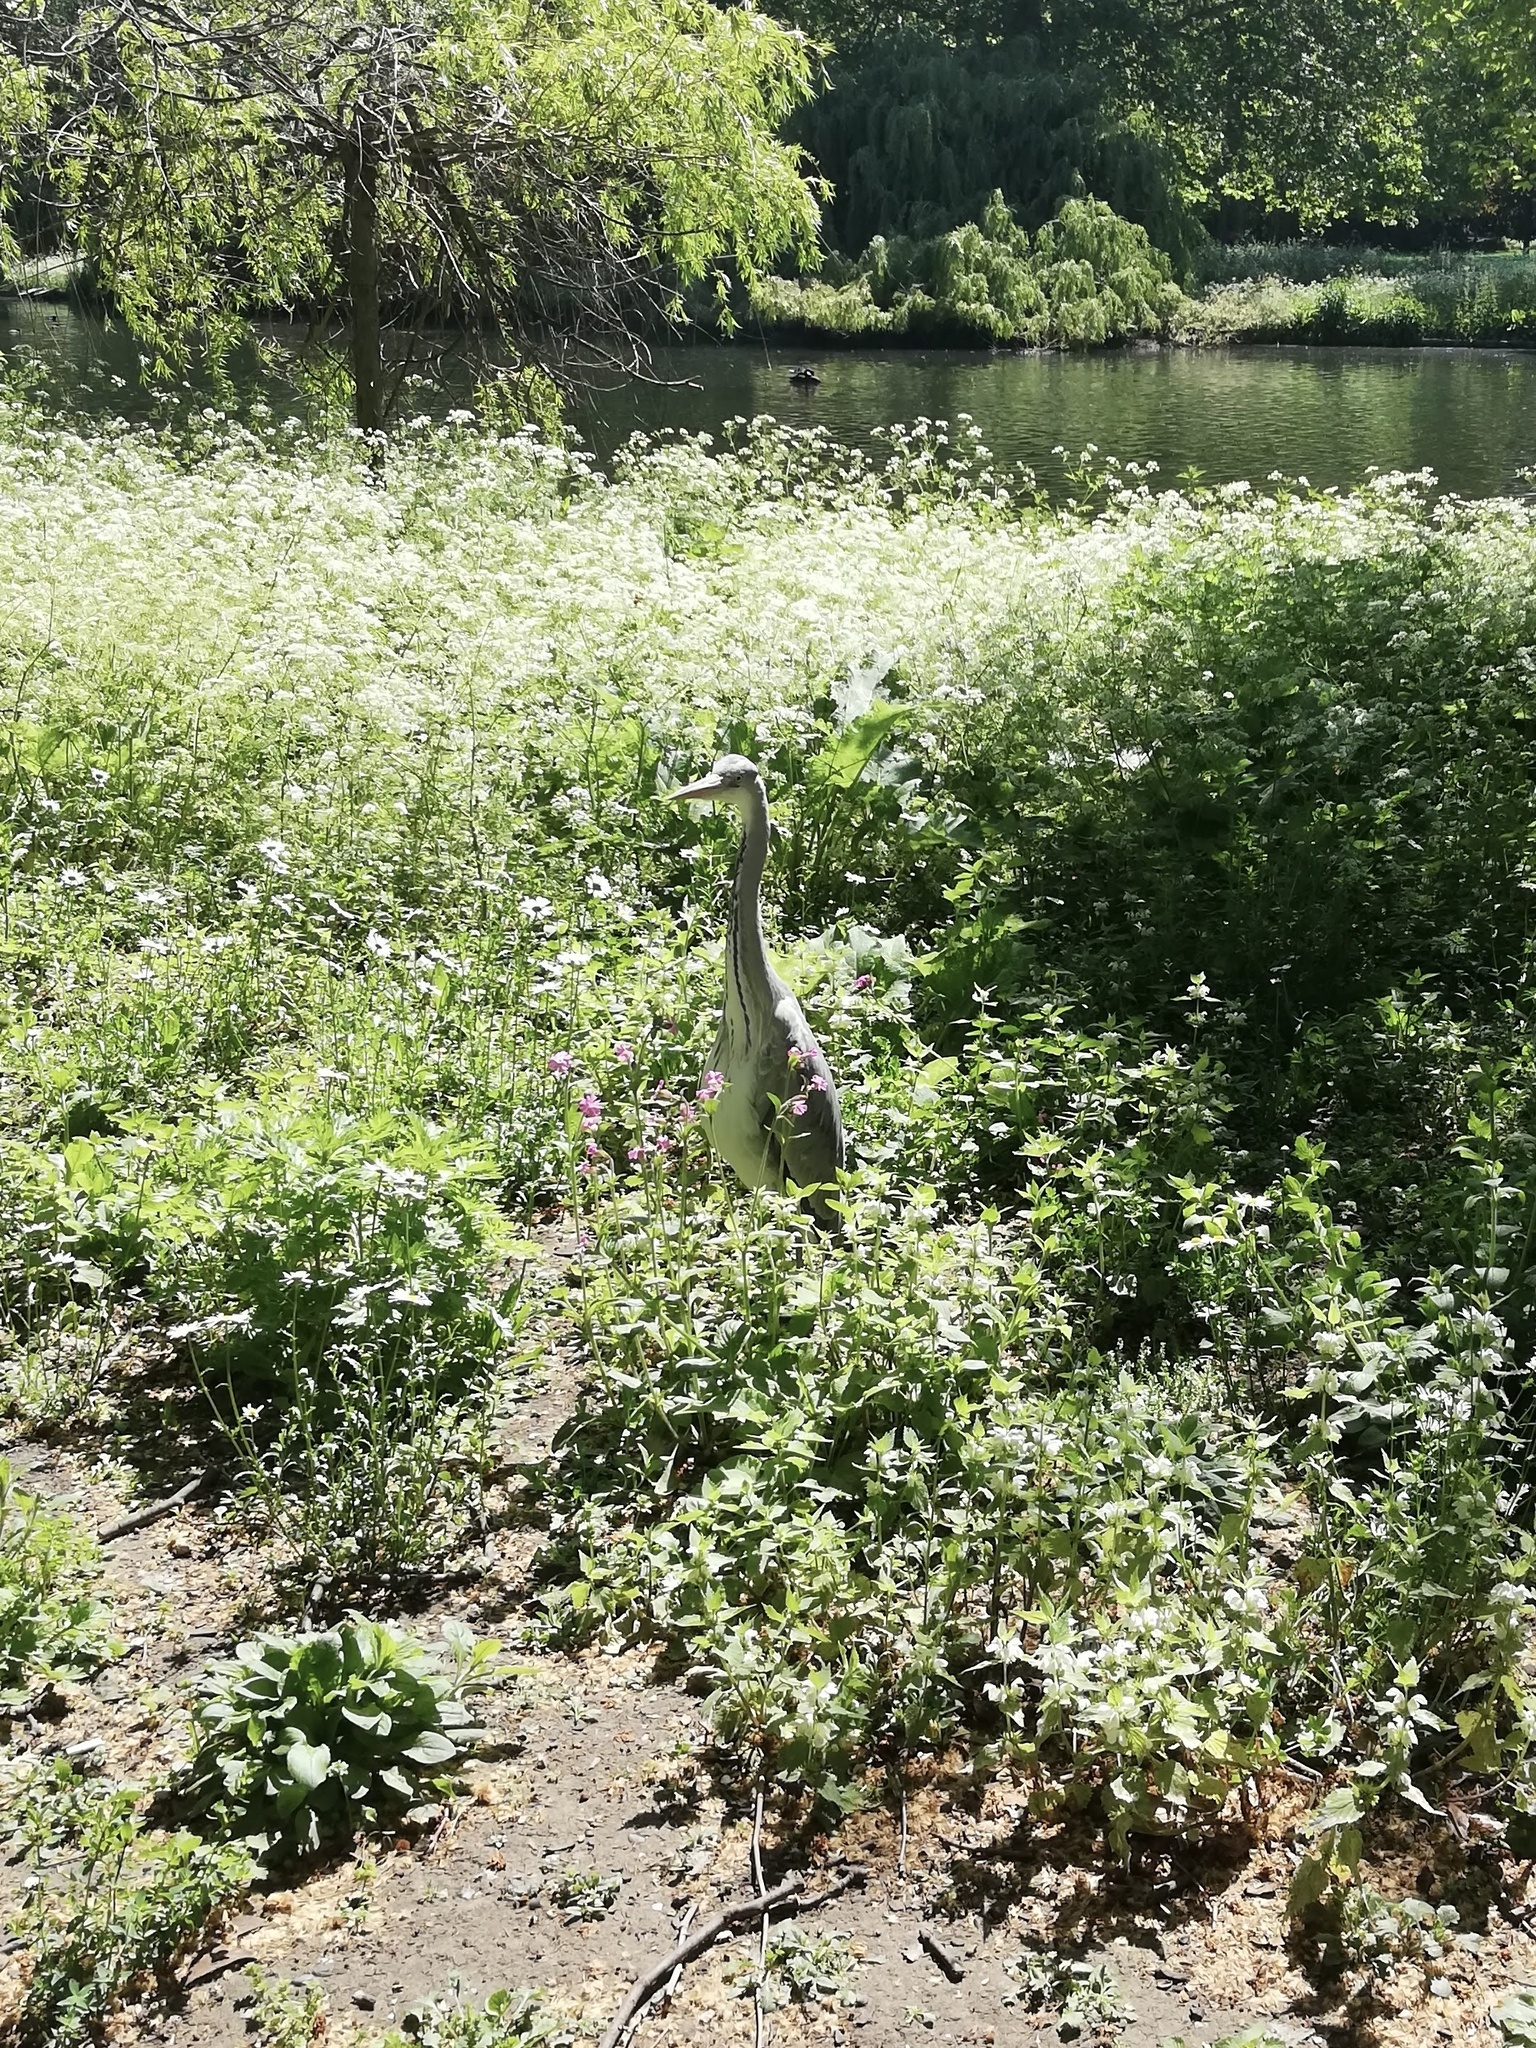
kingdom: Animalia
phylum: Chordata
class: Aves
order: Pelecaniformes
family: Ardeidae
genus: Ardea
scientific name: Ardea cinerea
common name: Grey heron
